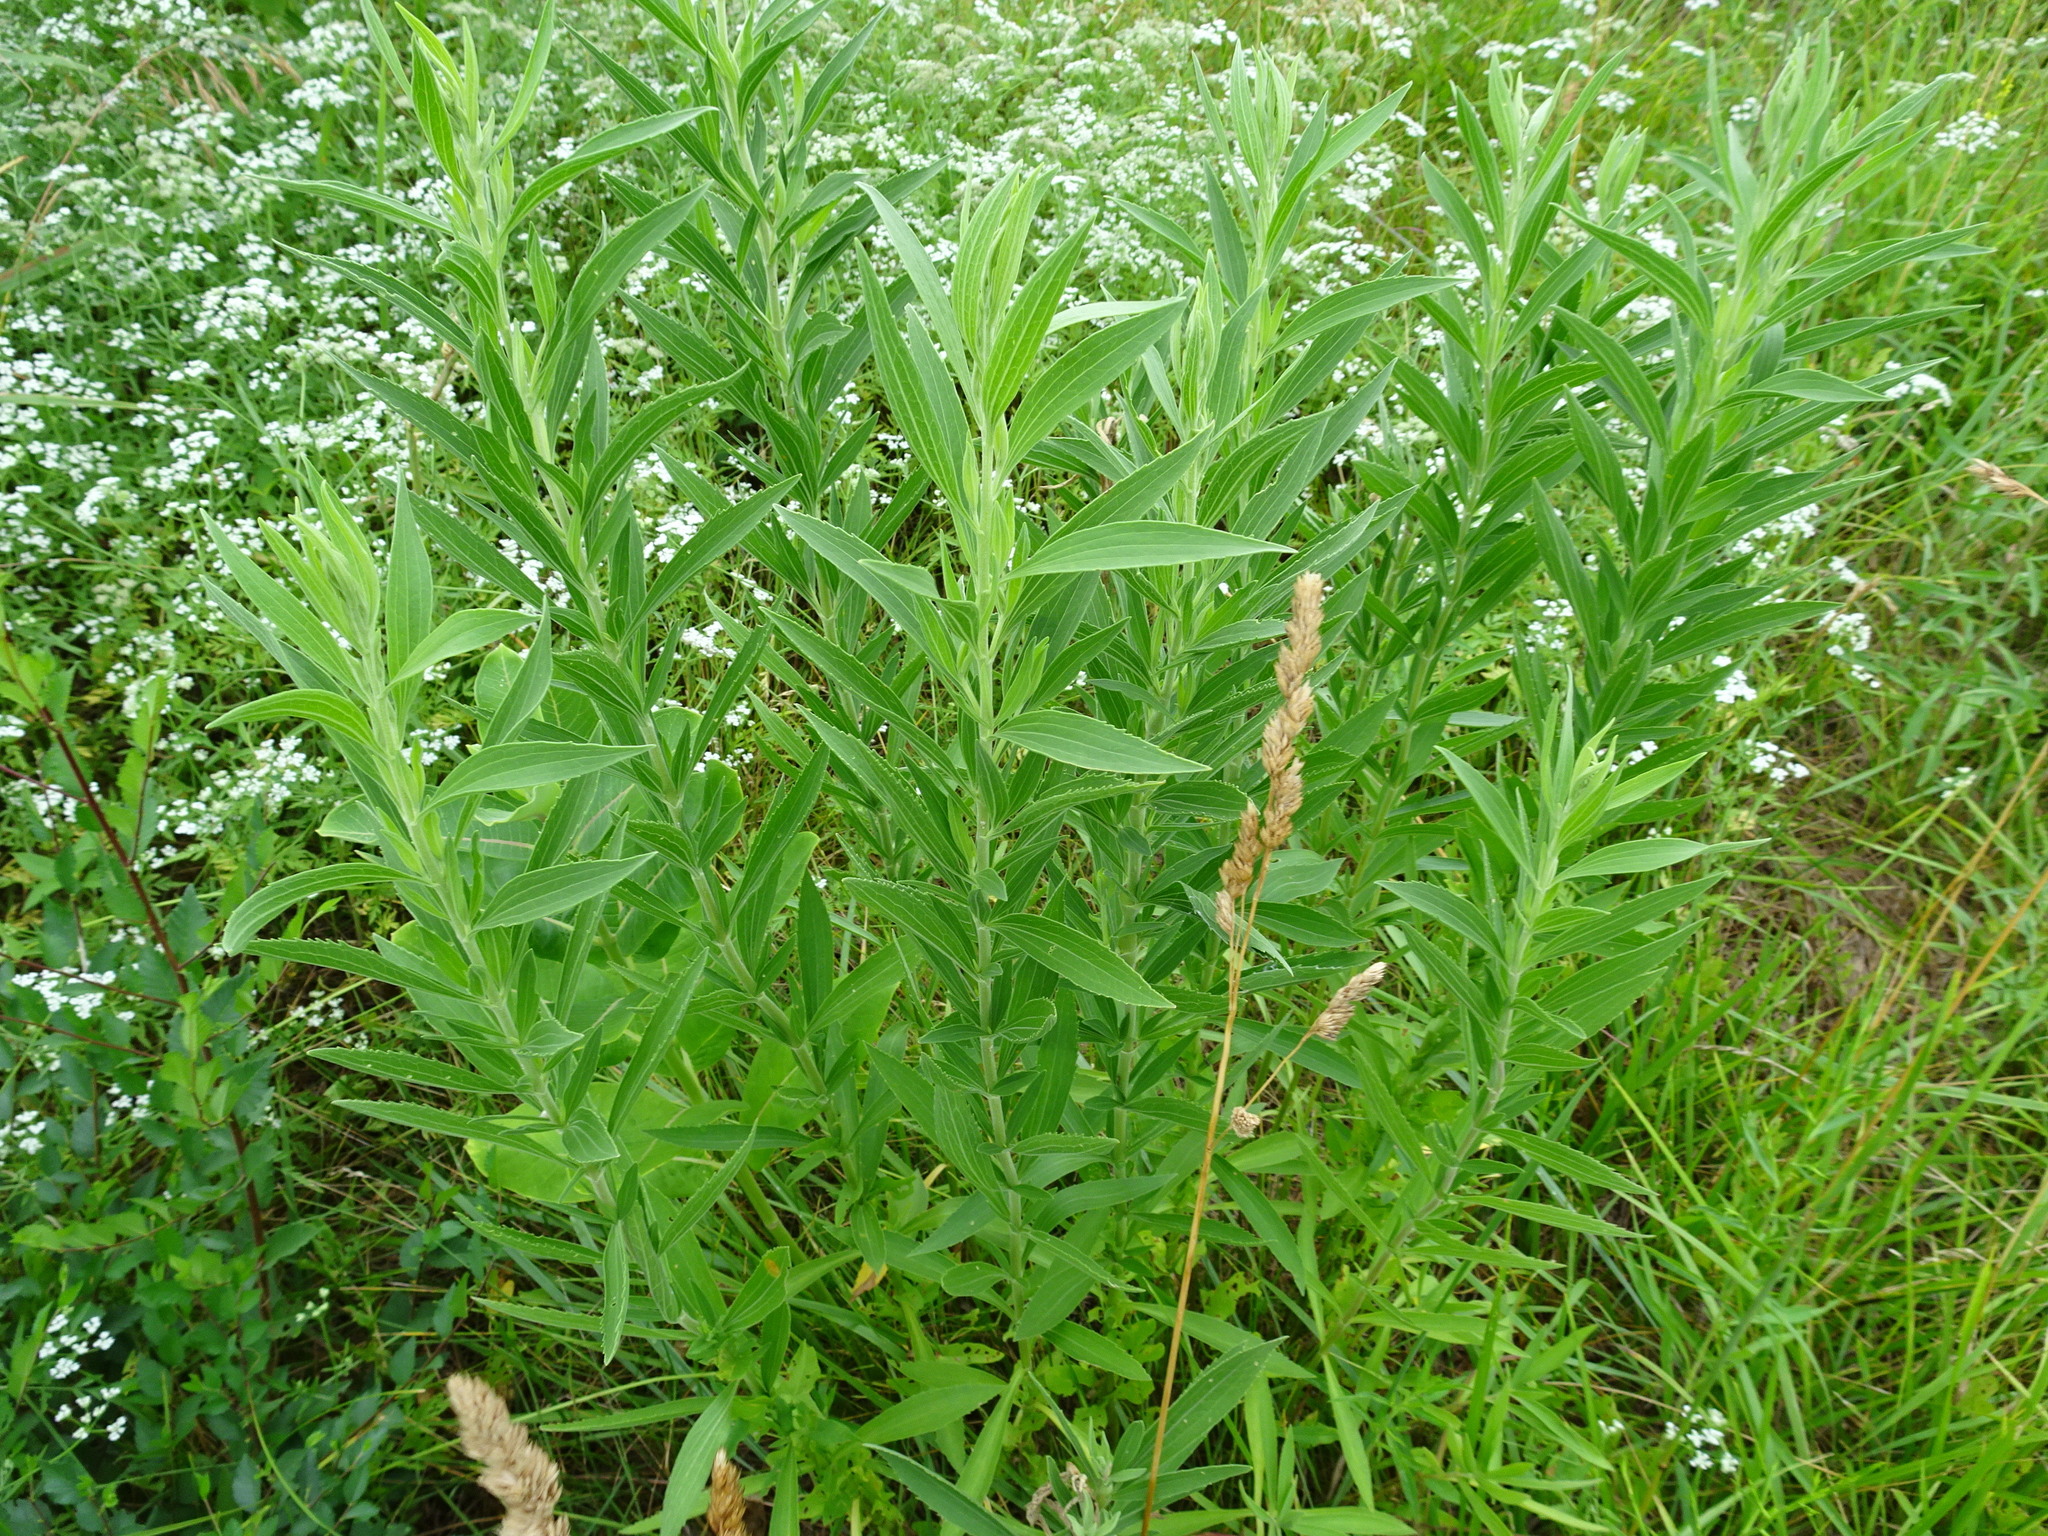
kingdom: Plantae
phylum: Tracheophyta
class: Magnoliopsida
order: Asterales
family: Asteraceae
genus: Eupatorium
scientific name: Eupatorium altissimum
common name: Tall thoroughwort
